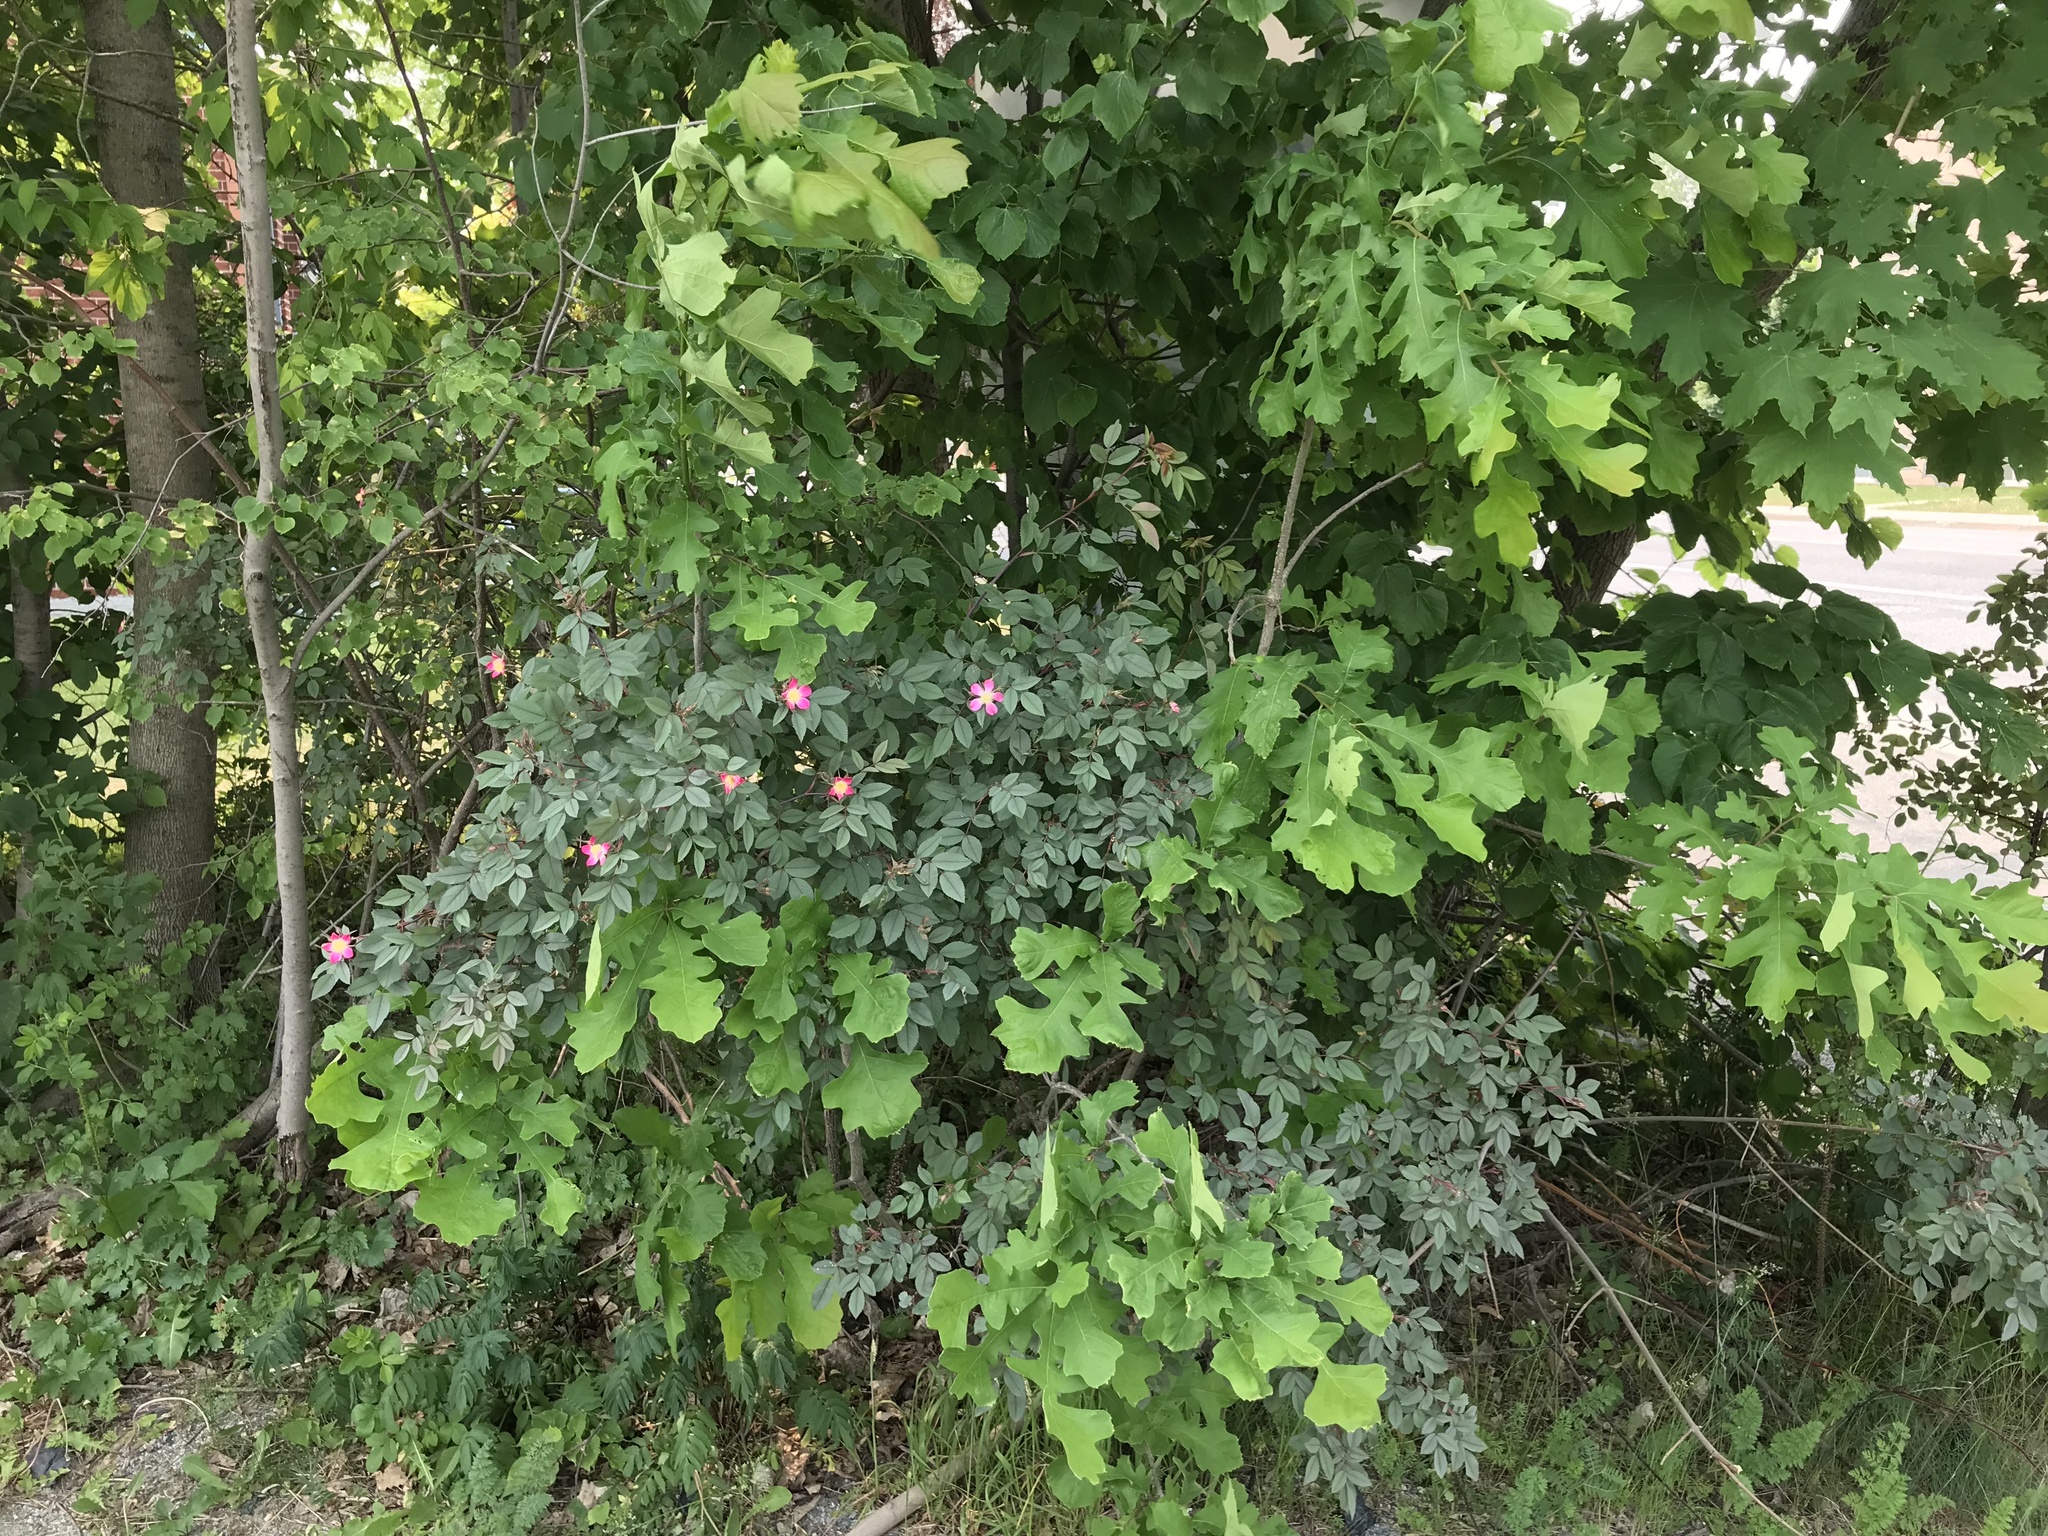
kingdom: Plantae
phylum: Tracheophyta
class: Magnoliopsida
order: Rosales
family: Rosaceae
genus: Rosa
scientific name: Rosa glauca
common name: Redleaf rose
